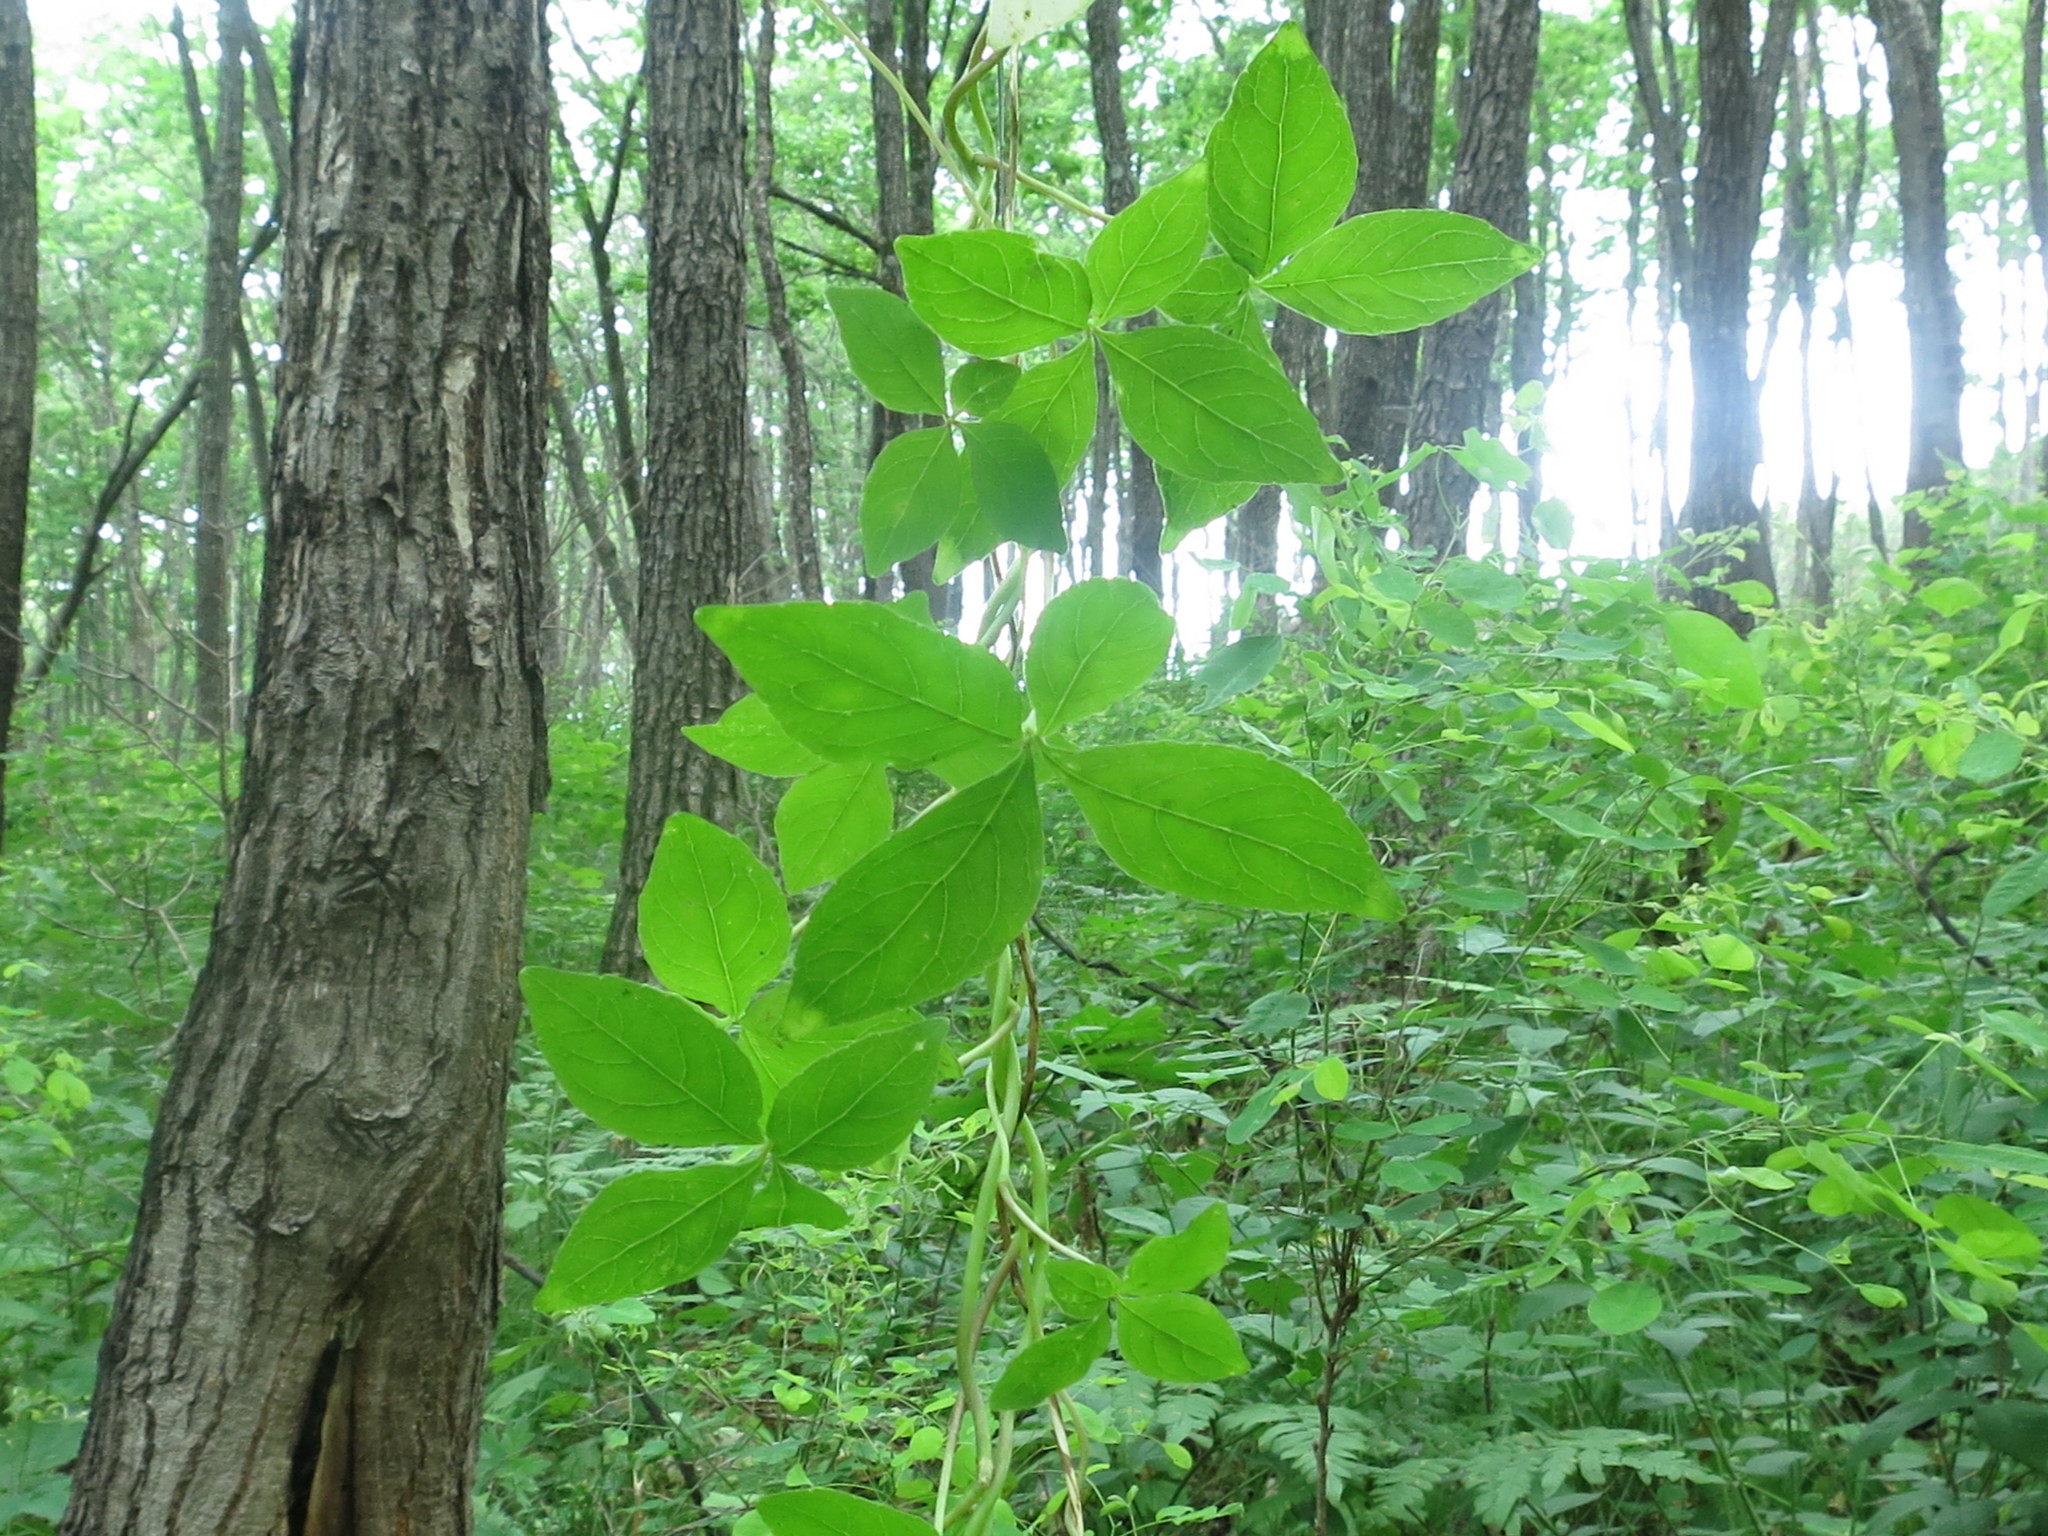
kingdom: Plantae
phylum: Tracheophyta
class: Magnoliopsida
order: Asterales
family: Campanulaceae
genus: Codonopsis
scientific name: Codonopsis lanceolata
